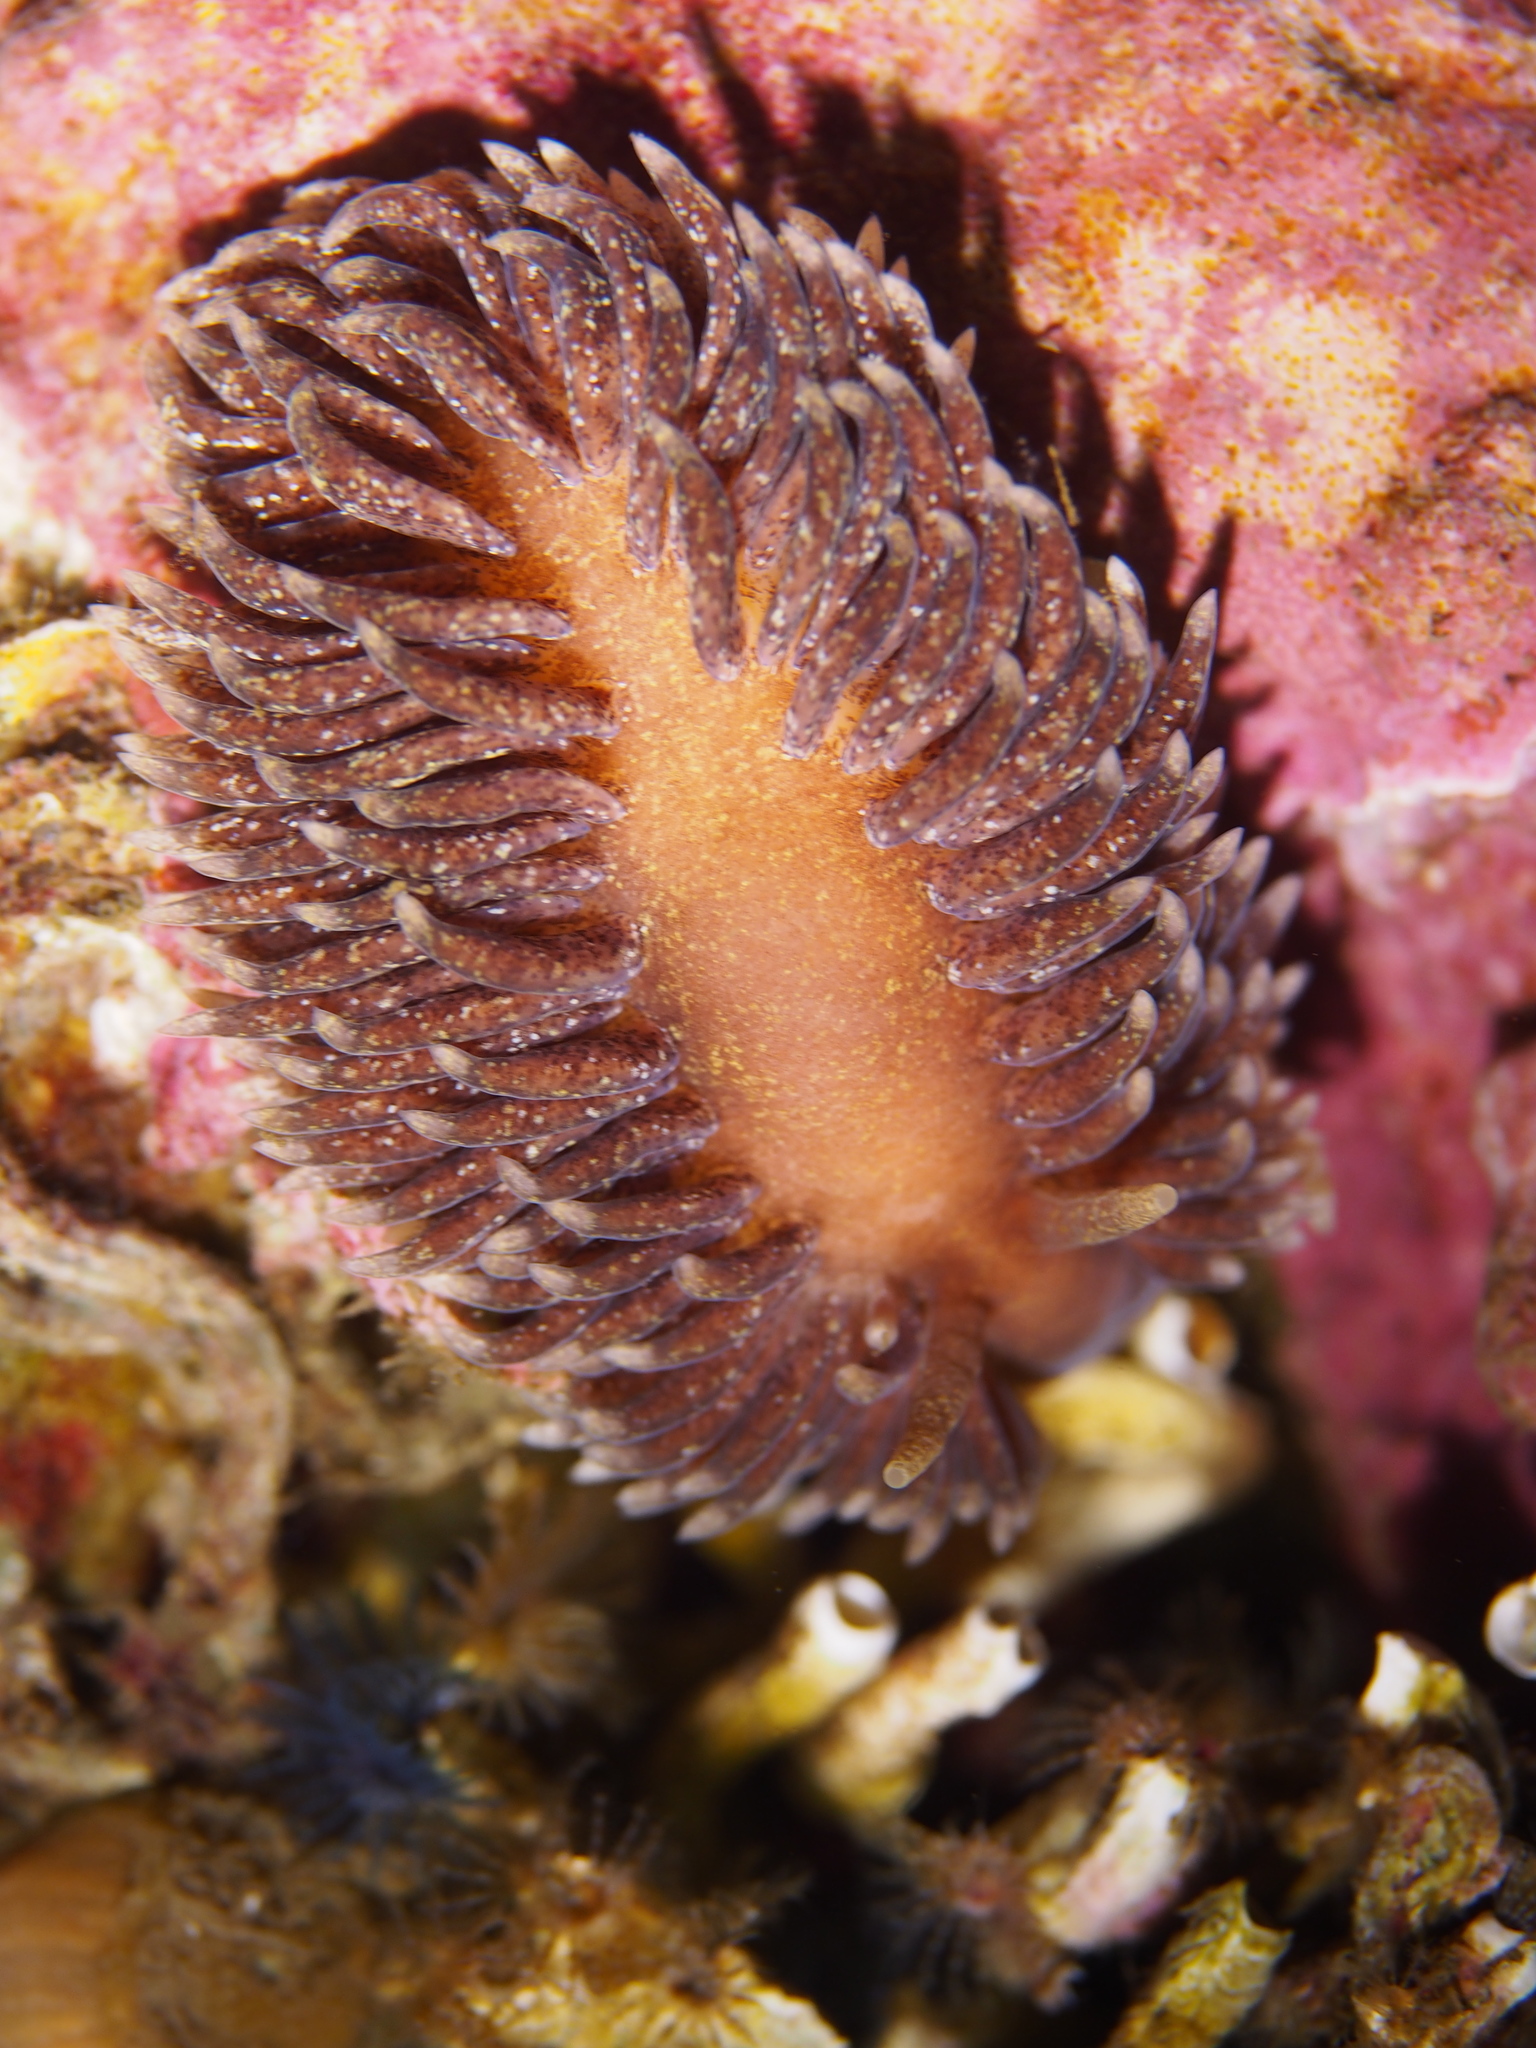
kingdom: Animalia
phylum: Mollusca
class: Gastropoda
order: Nudibranchia
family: Aeolidiidae
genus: Aeolidia
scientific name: Aeolidia papillosa
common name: Common grey sea slug
